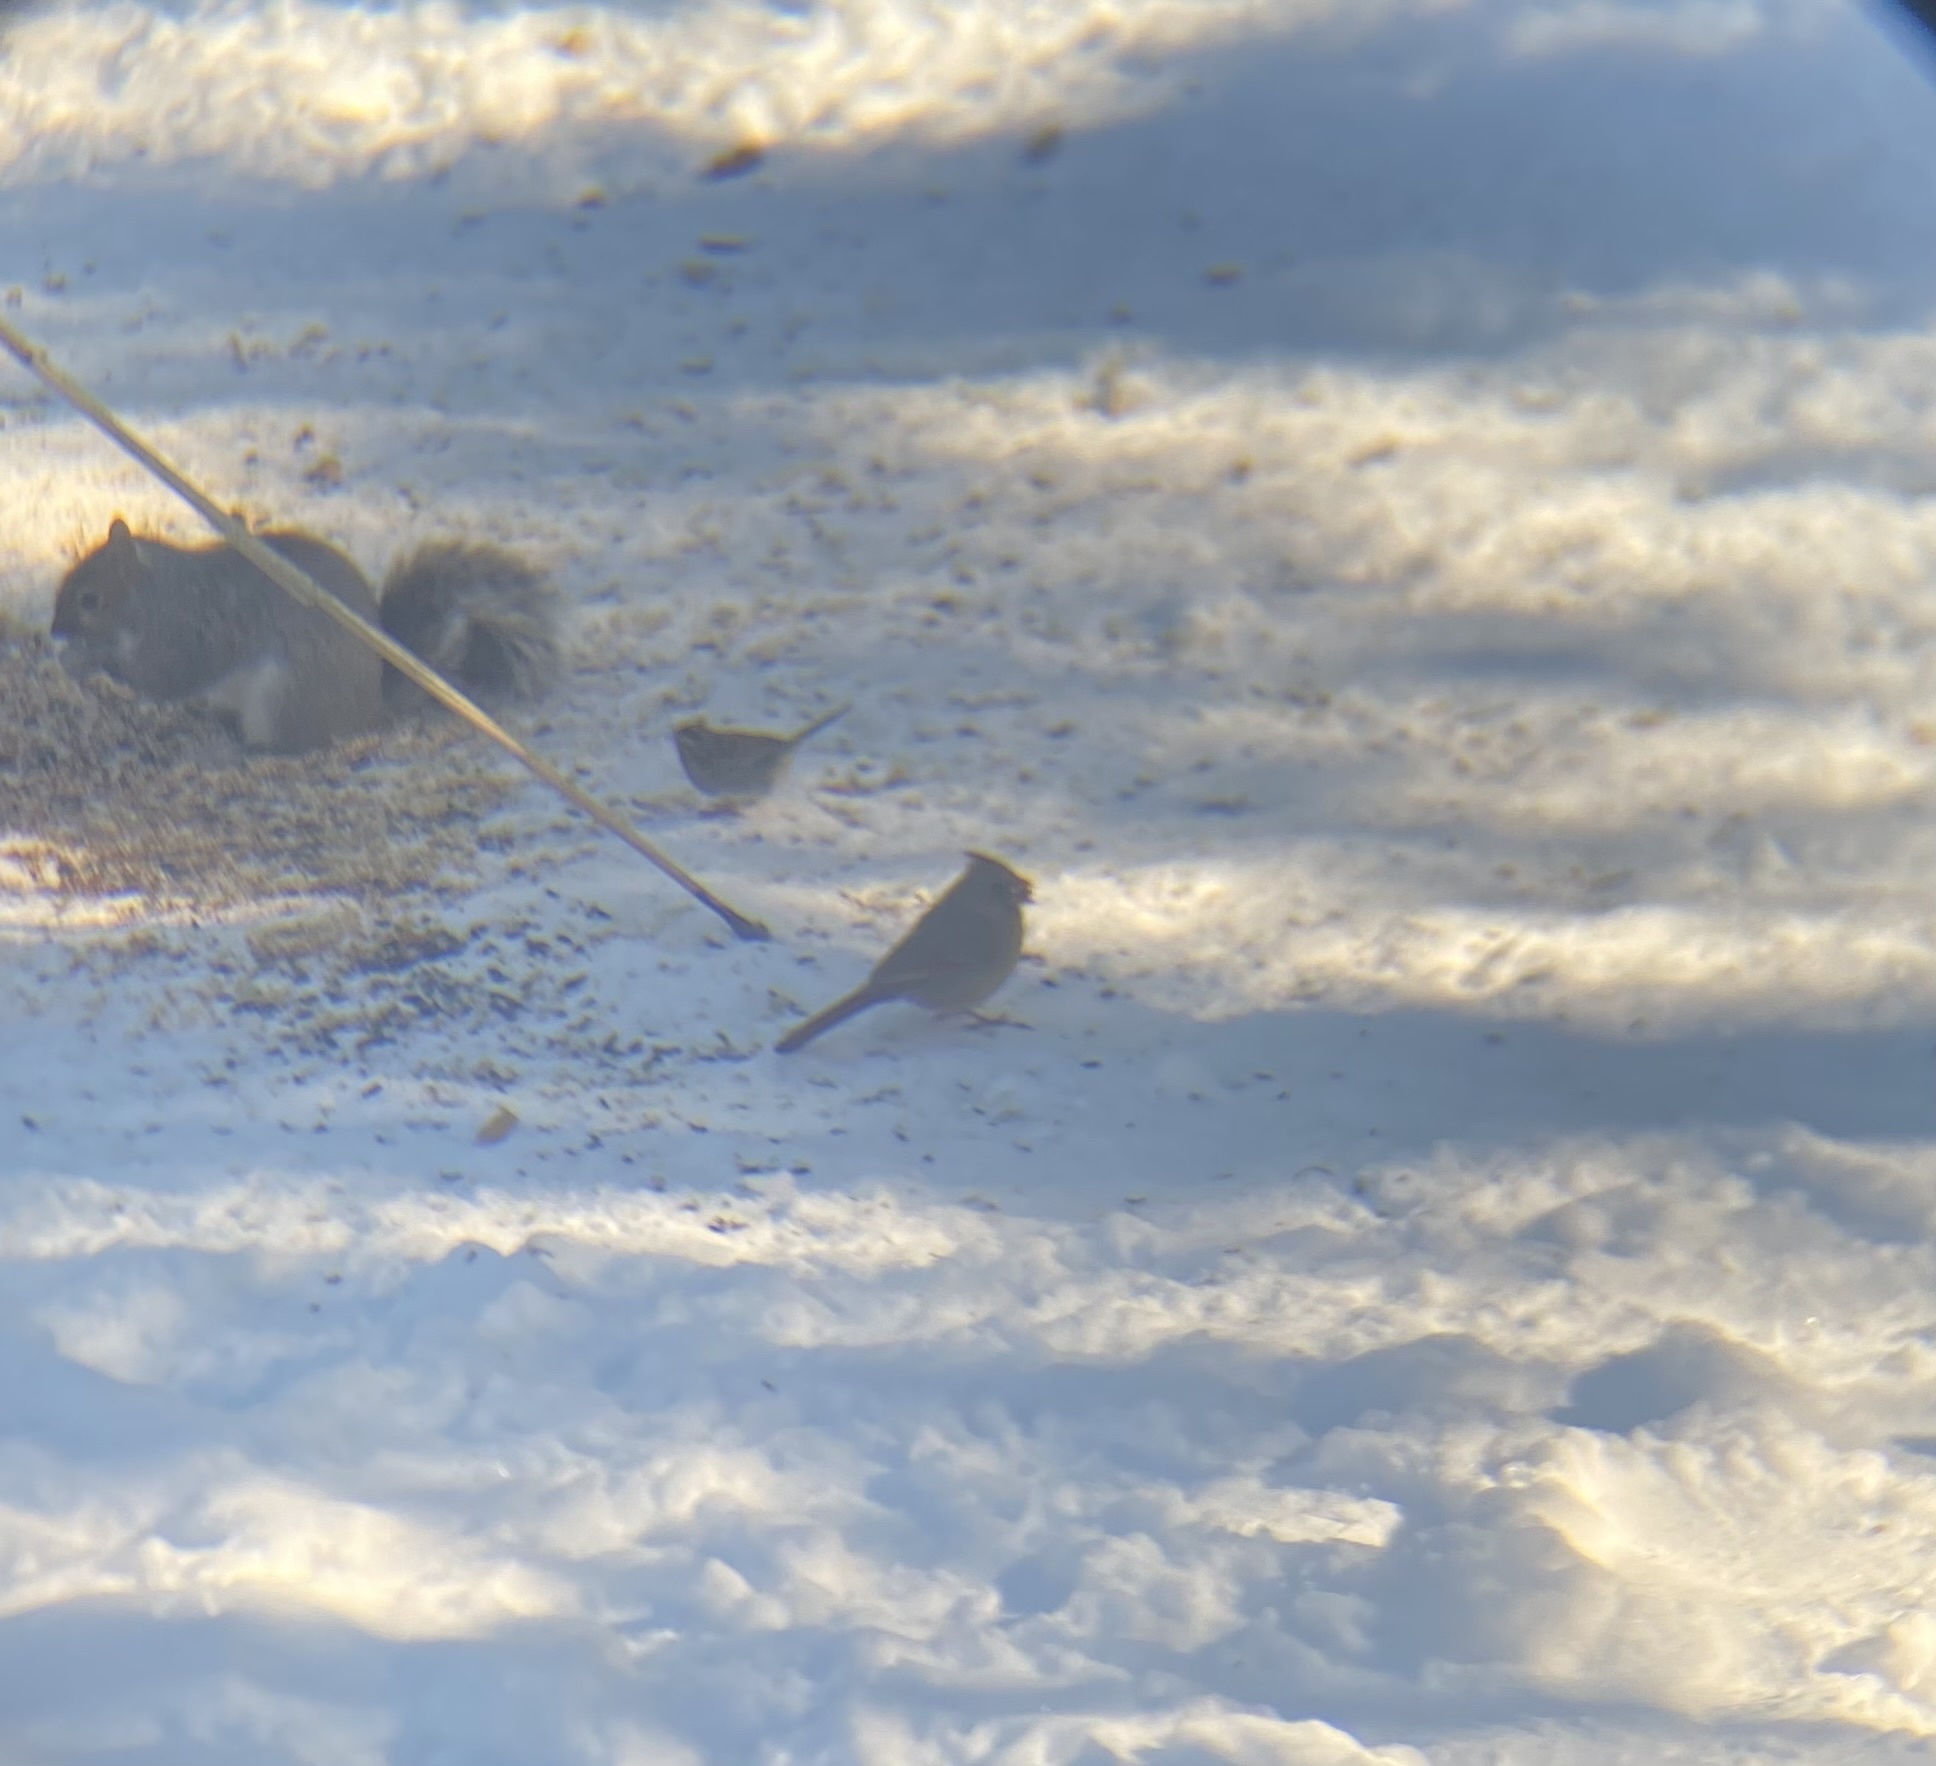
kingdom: Animalia
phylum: Chordata
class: Aves
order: Passeriformes
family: Cardinalidae
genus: Cardinalis
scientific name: Cardinalis cardinalis
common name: Northern cardinal
